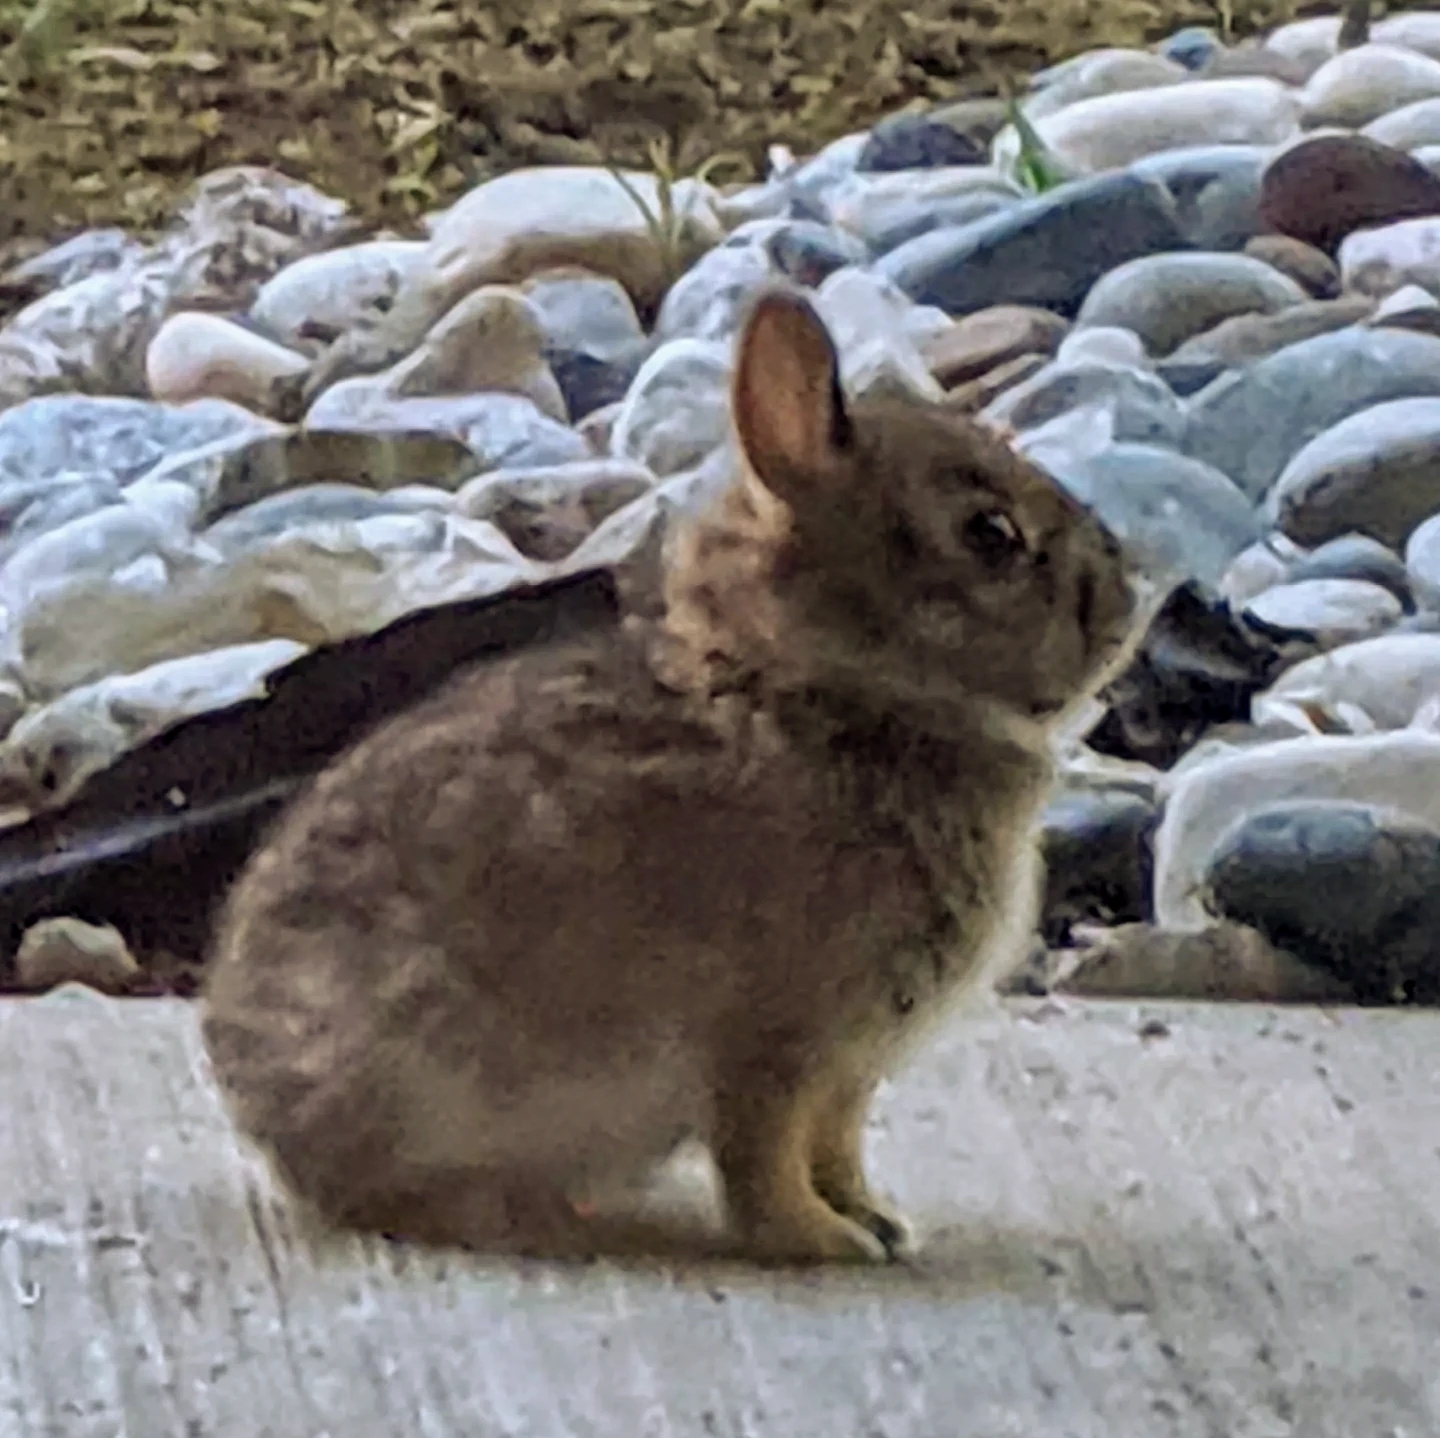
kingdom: Animalia
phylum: Chordata
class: Mammalia
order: Lagomorpha
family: Leporidae
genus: Sylvilagus
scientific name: Sylvilagus floridanus
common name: Eastern cottontail
